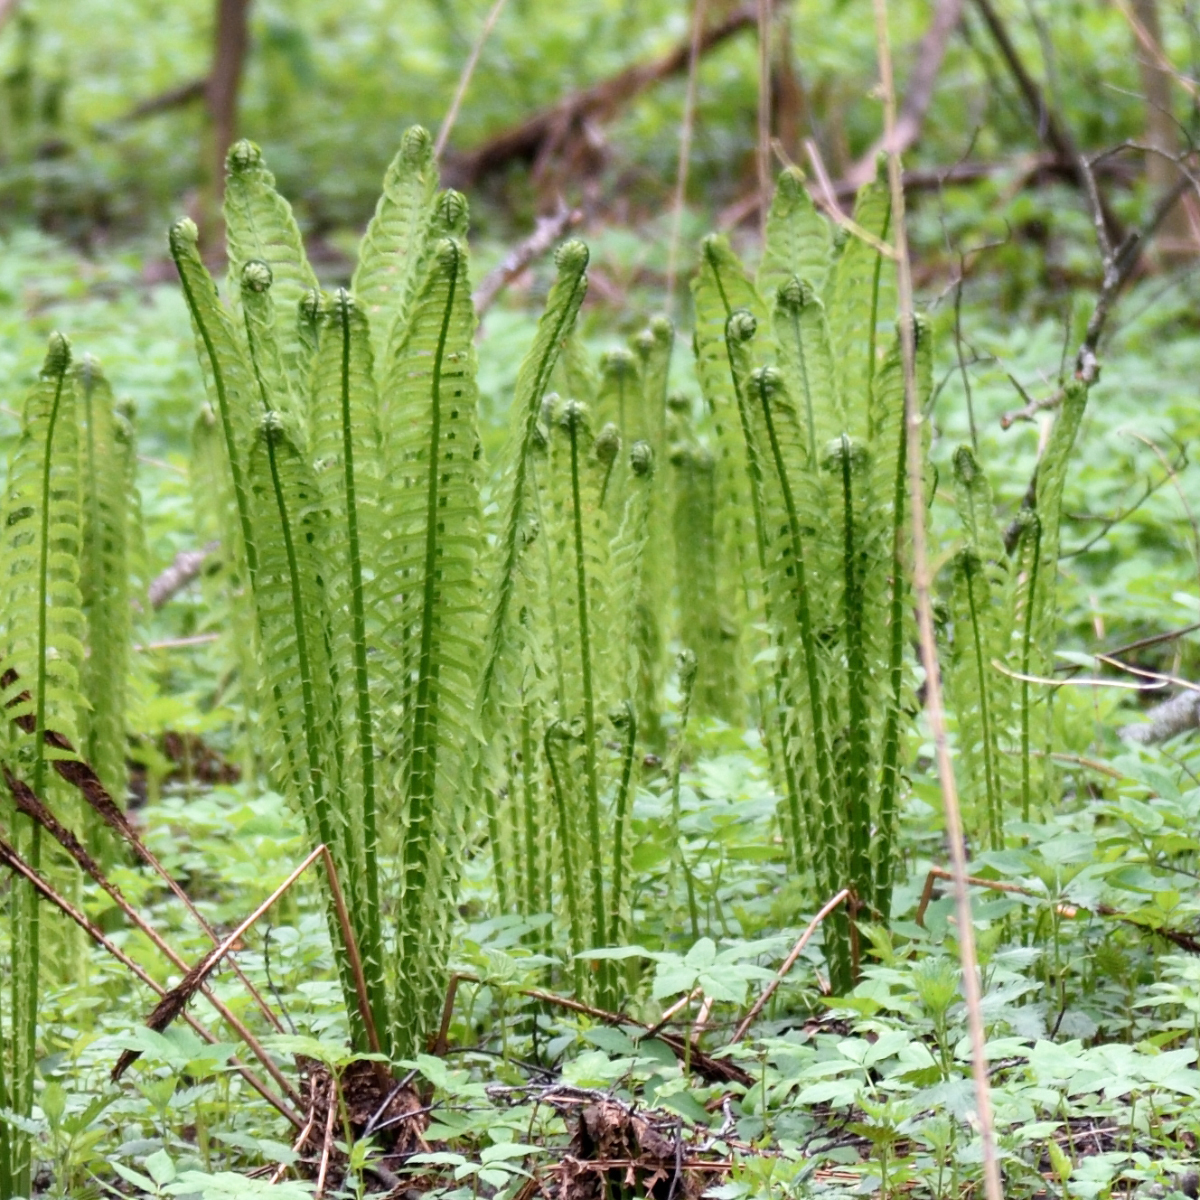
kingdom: Plantae
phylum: Tracheophyta
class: Polypodiopsida
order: Polypodiales
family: Onocleaceae
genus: Matteuccia
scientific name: Matteuccia struthiopteris
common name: Ostrich fern
